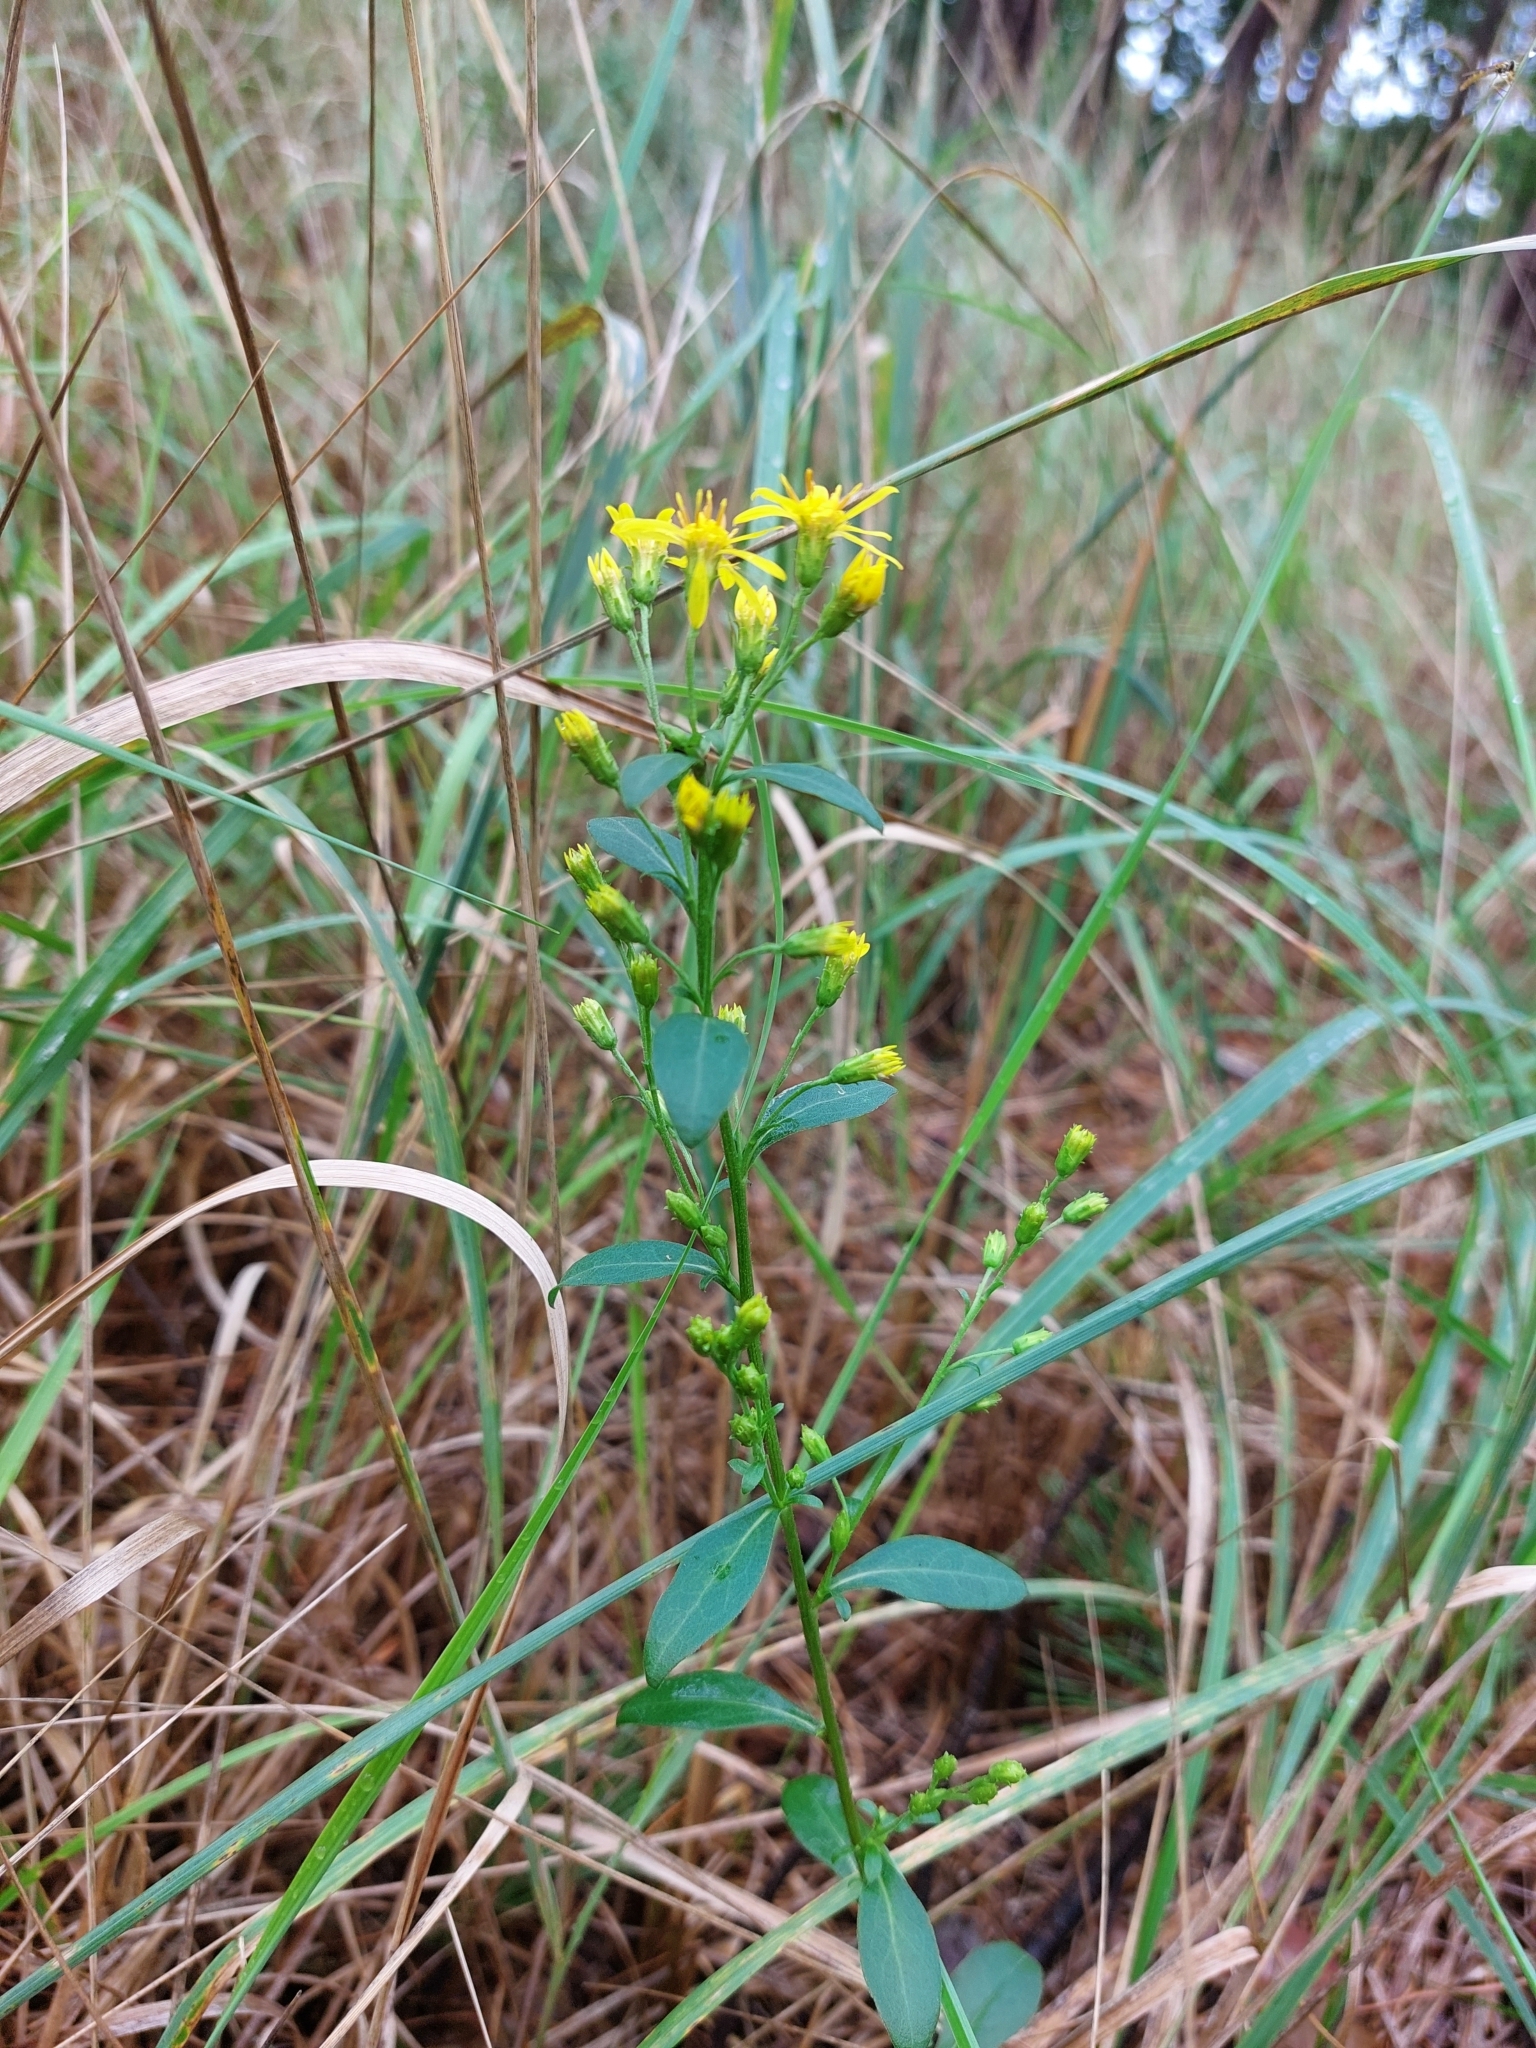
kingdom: Plantae
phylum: Tracheophyta
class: Magnoliopsida
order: Asterales
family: Asteraceae
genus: Solidago
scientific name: Solidago virgaurea
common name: Goldenrod
